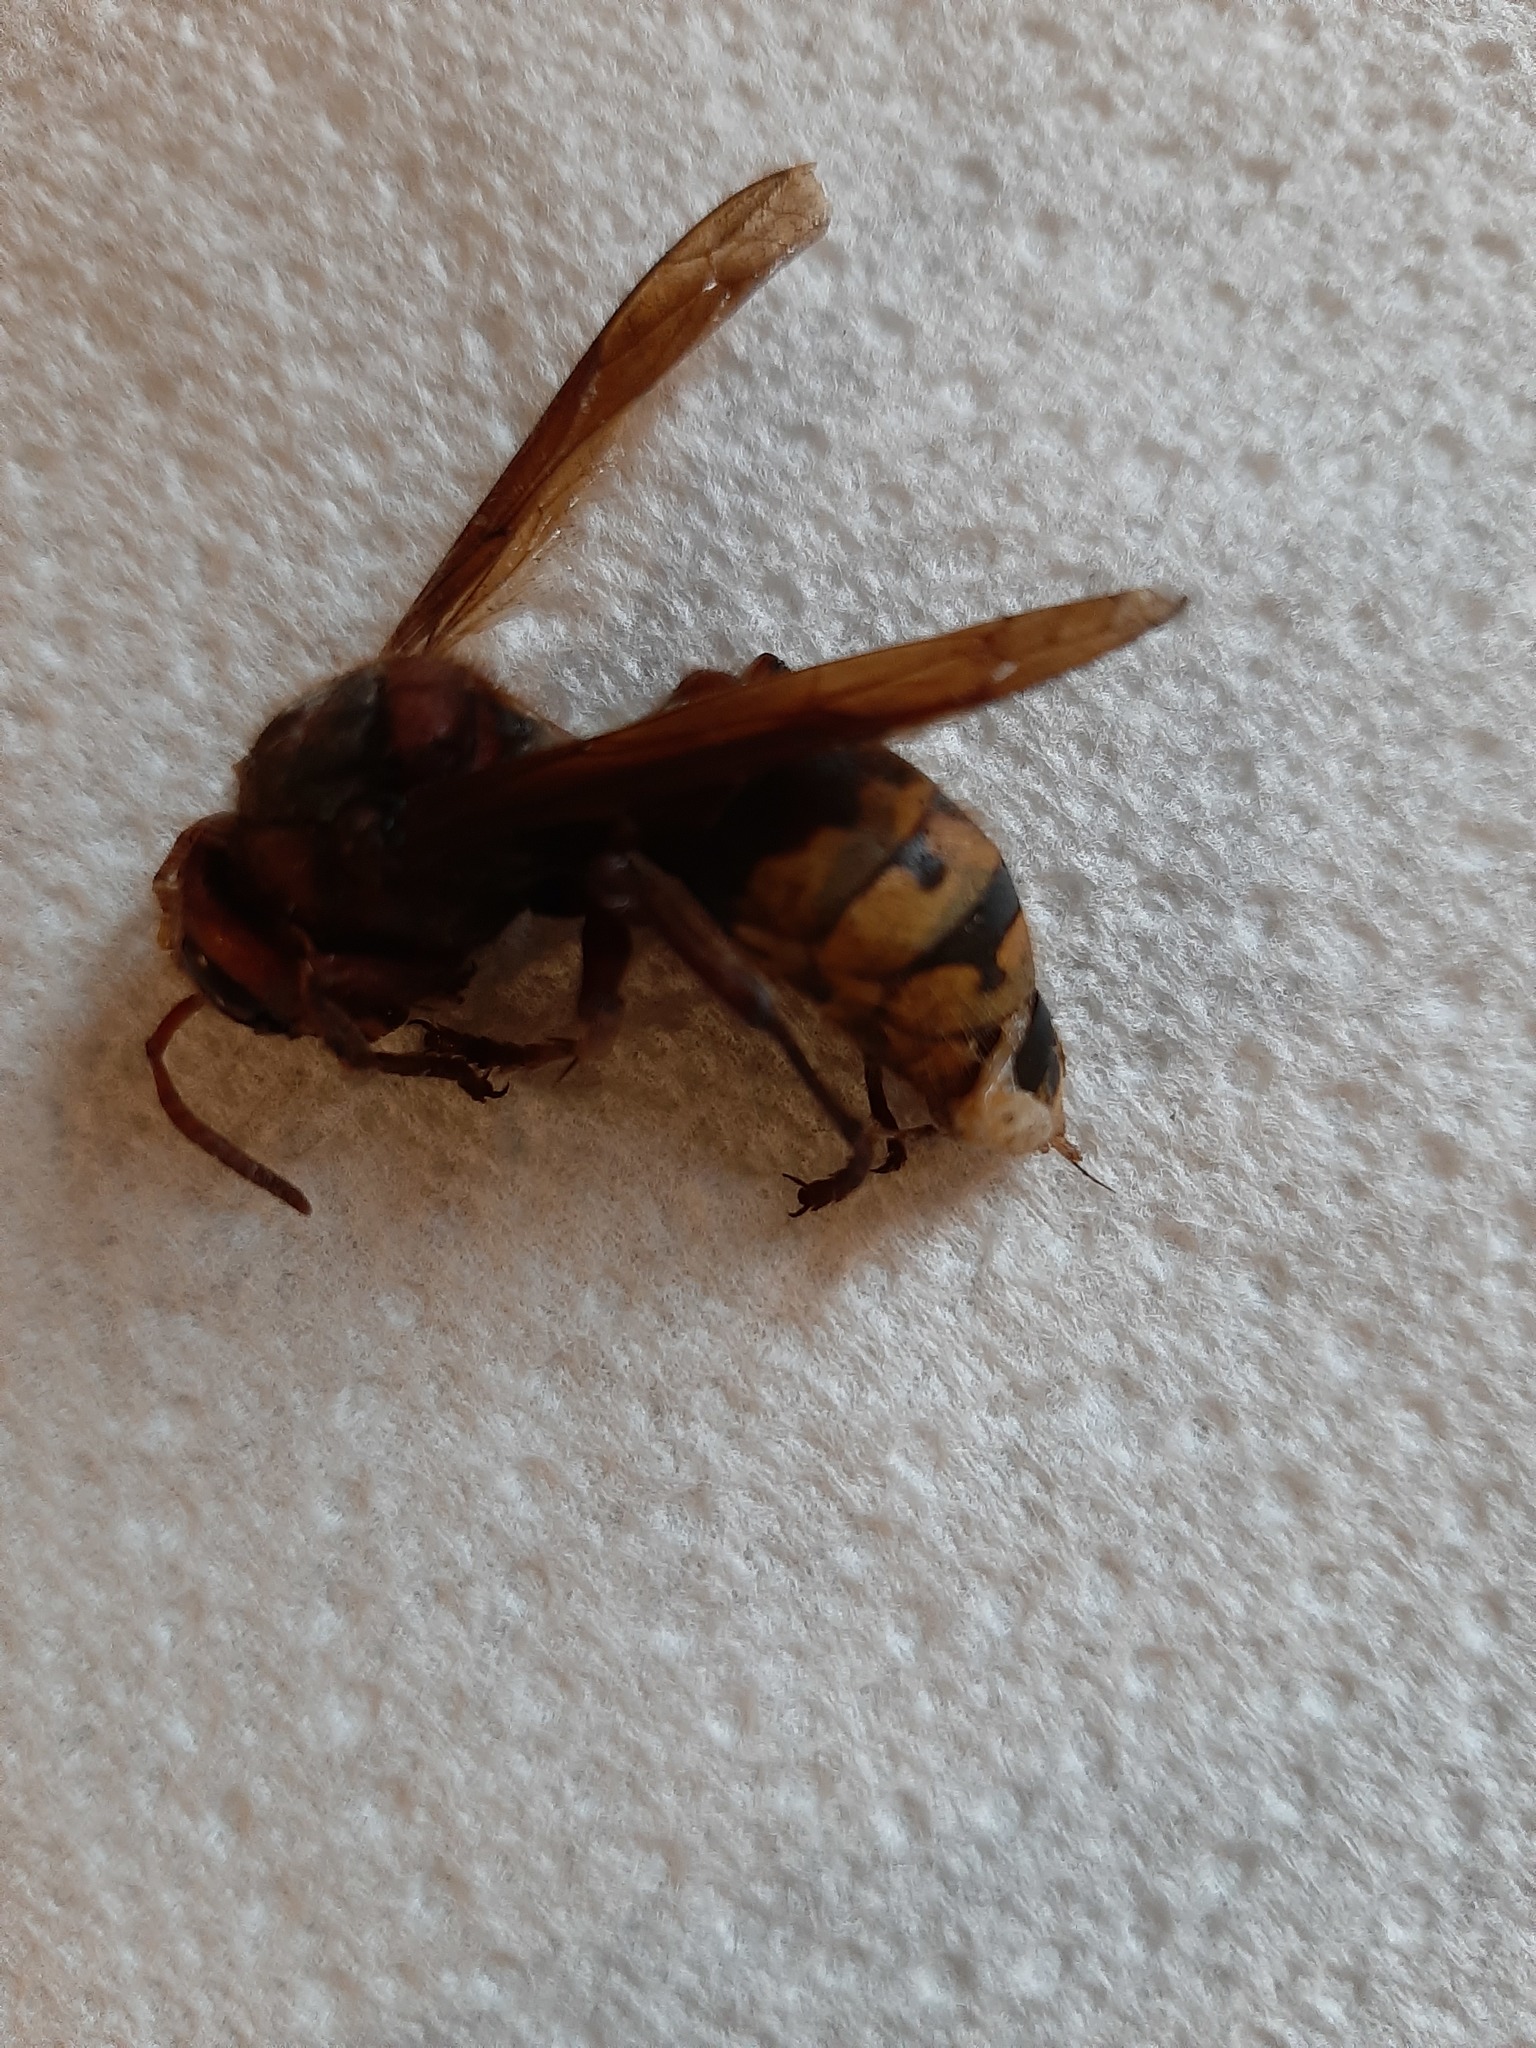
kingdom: Animalia
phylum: Arthropoda
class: Insecta
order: Hymenoptera
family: Vespidae
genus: Vespa
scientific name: Vespa crabro
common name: Hornet
